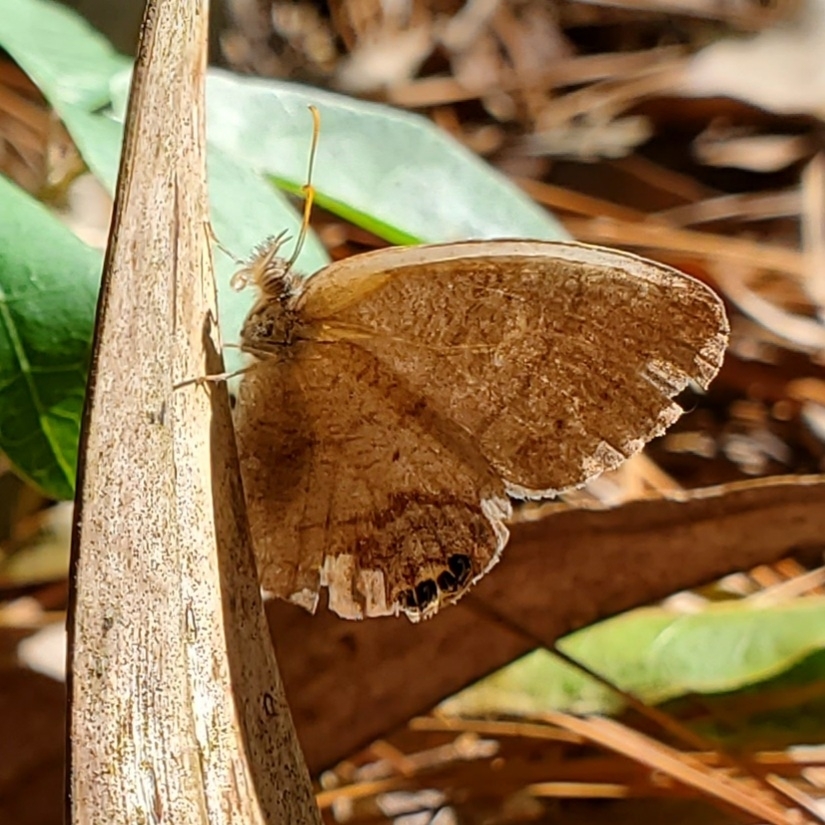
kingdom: Animalia
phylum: Arthropoda
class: Insecta
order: Lepidoptera
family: Nymphalidae
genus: Euptychia
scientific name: Euptychia cornelius
